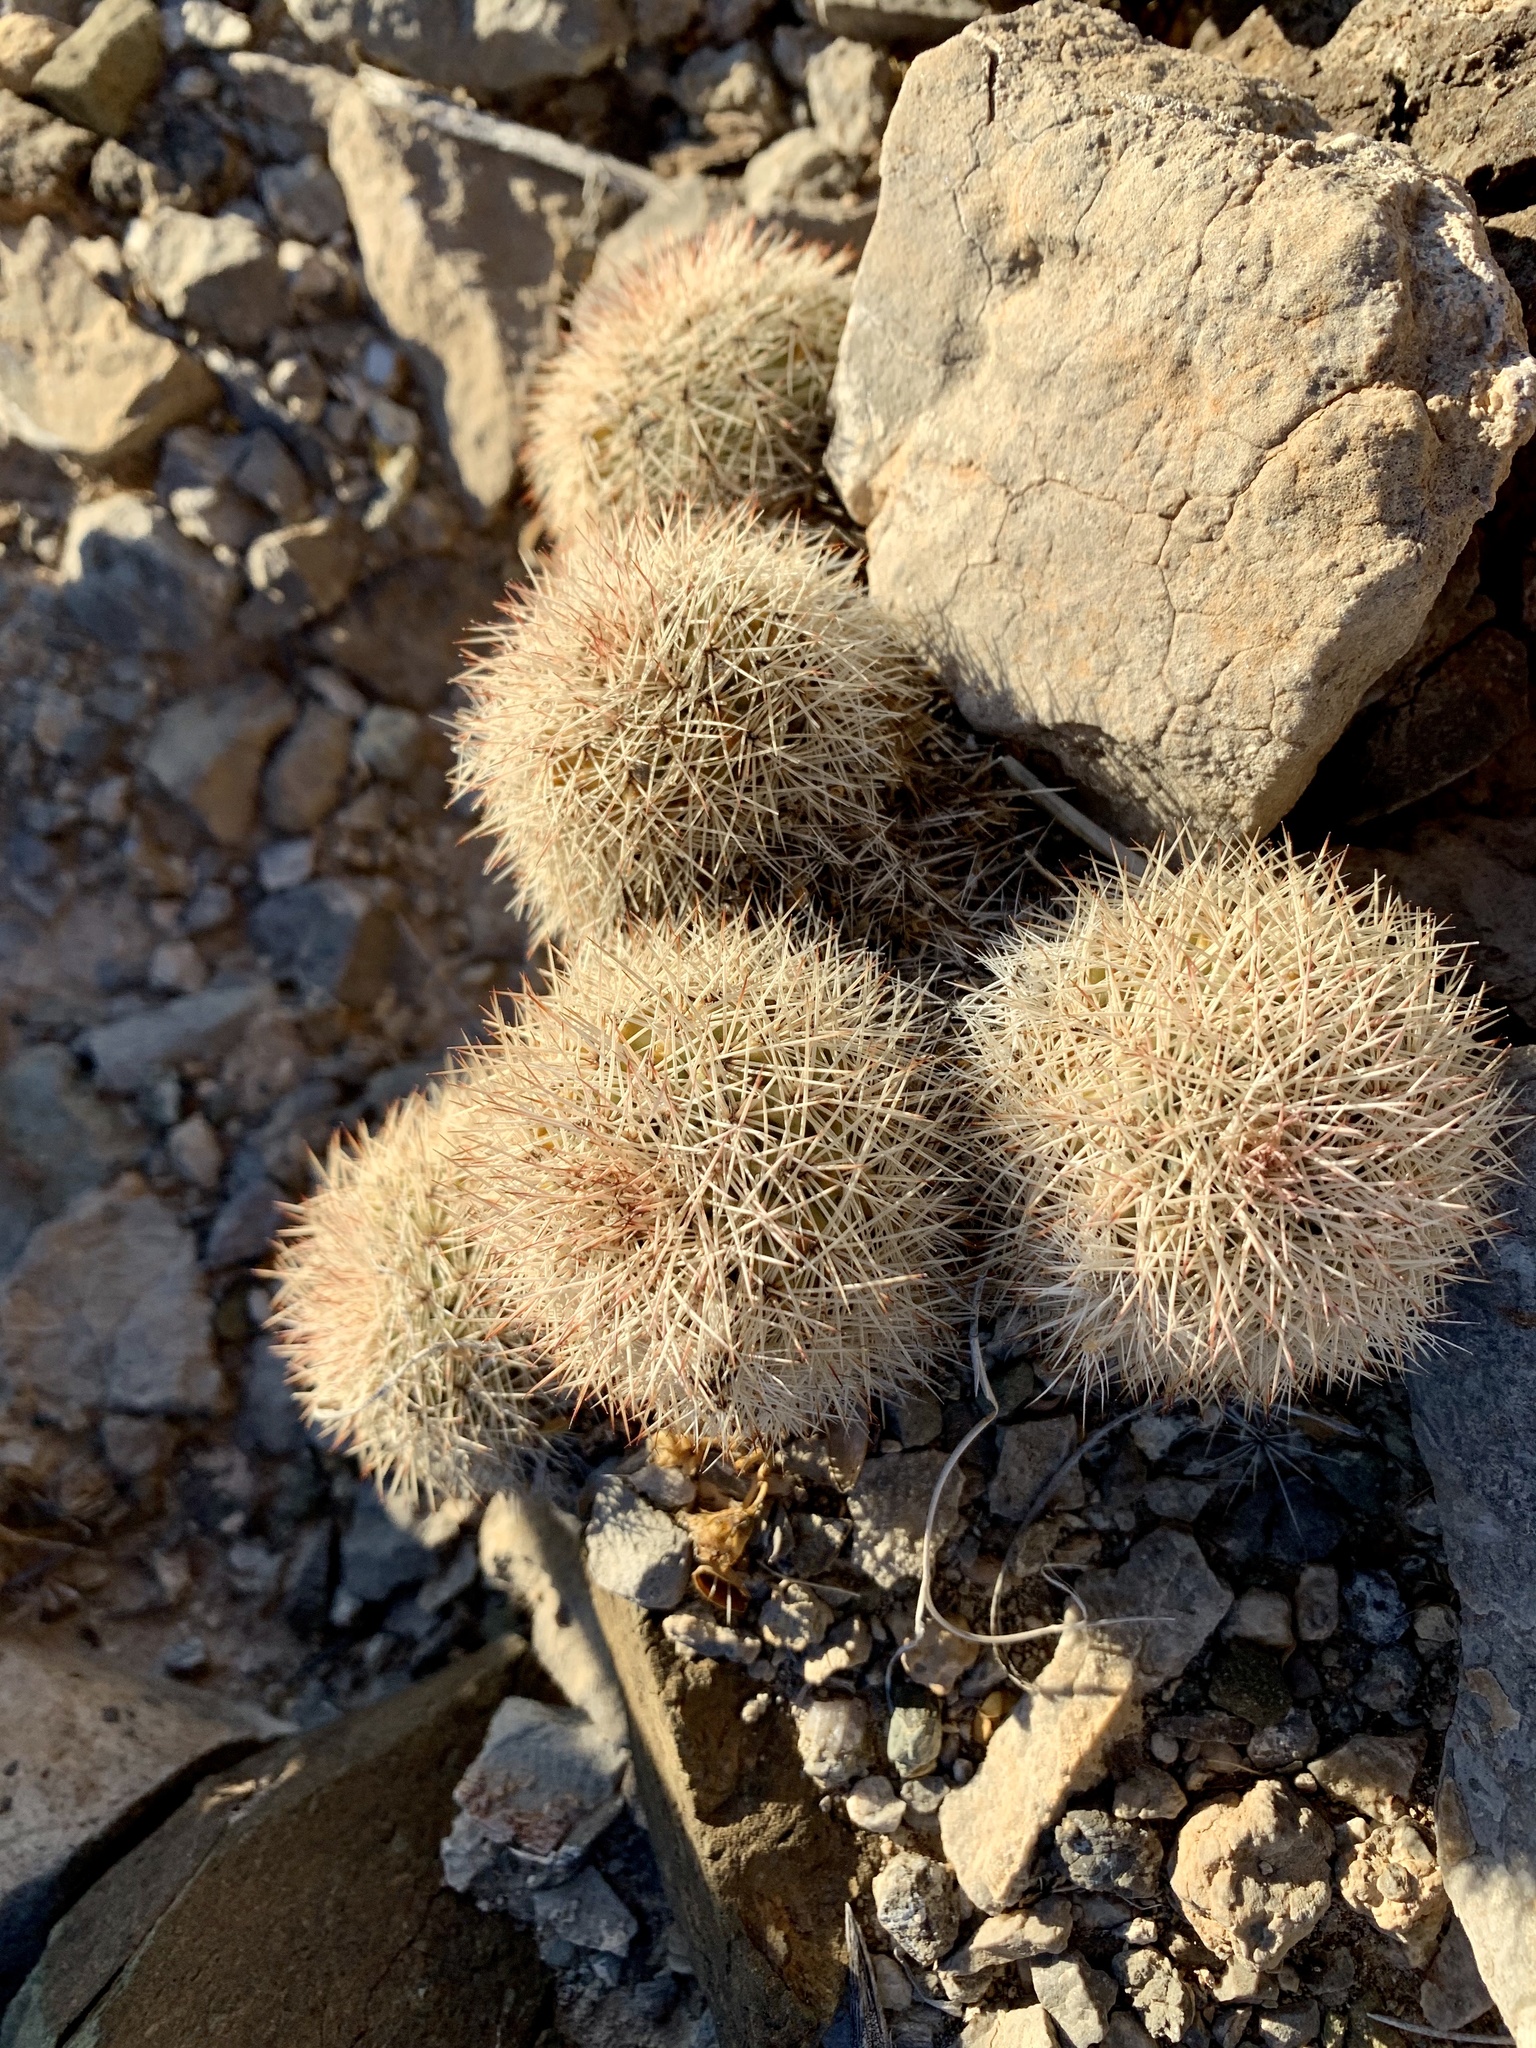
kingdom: Plantae
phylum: Tracheophyta
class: Magnoliopsida
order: Caryophyllales
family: Cactaceae
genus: Echinocereus
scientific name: Echinocereus dasyacanthus
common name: Spiny hedgehog cactus
